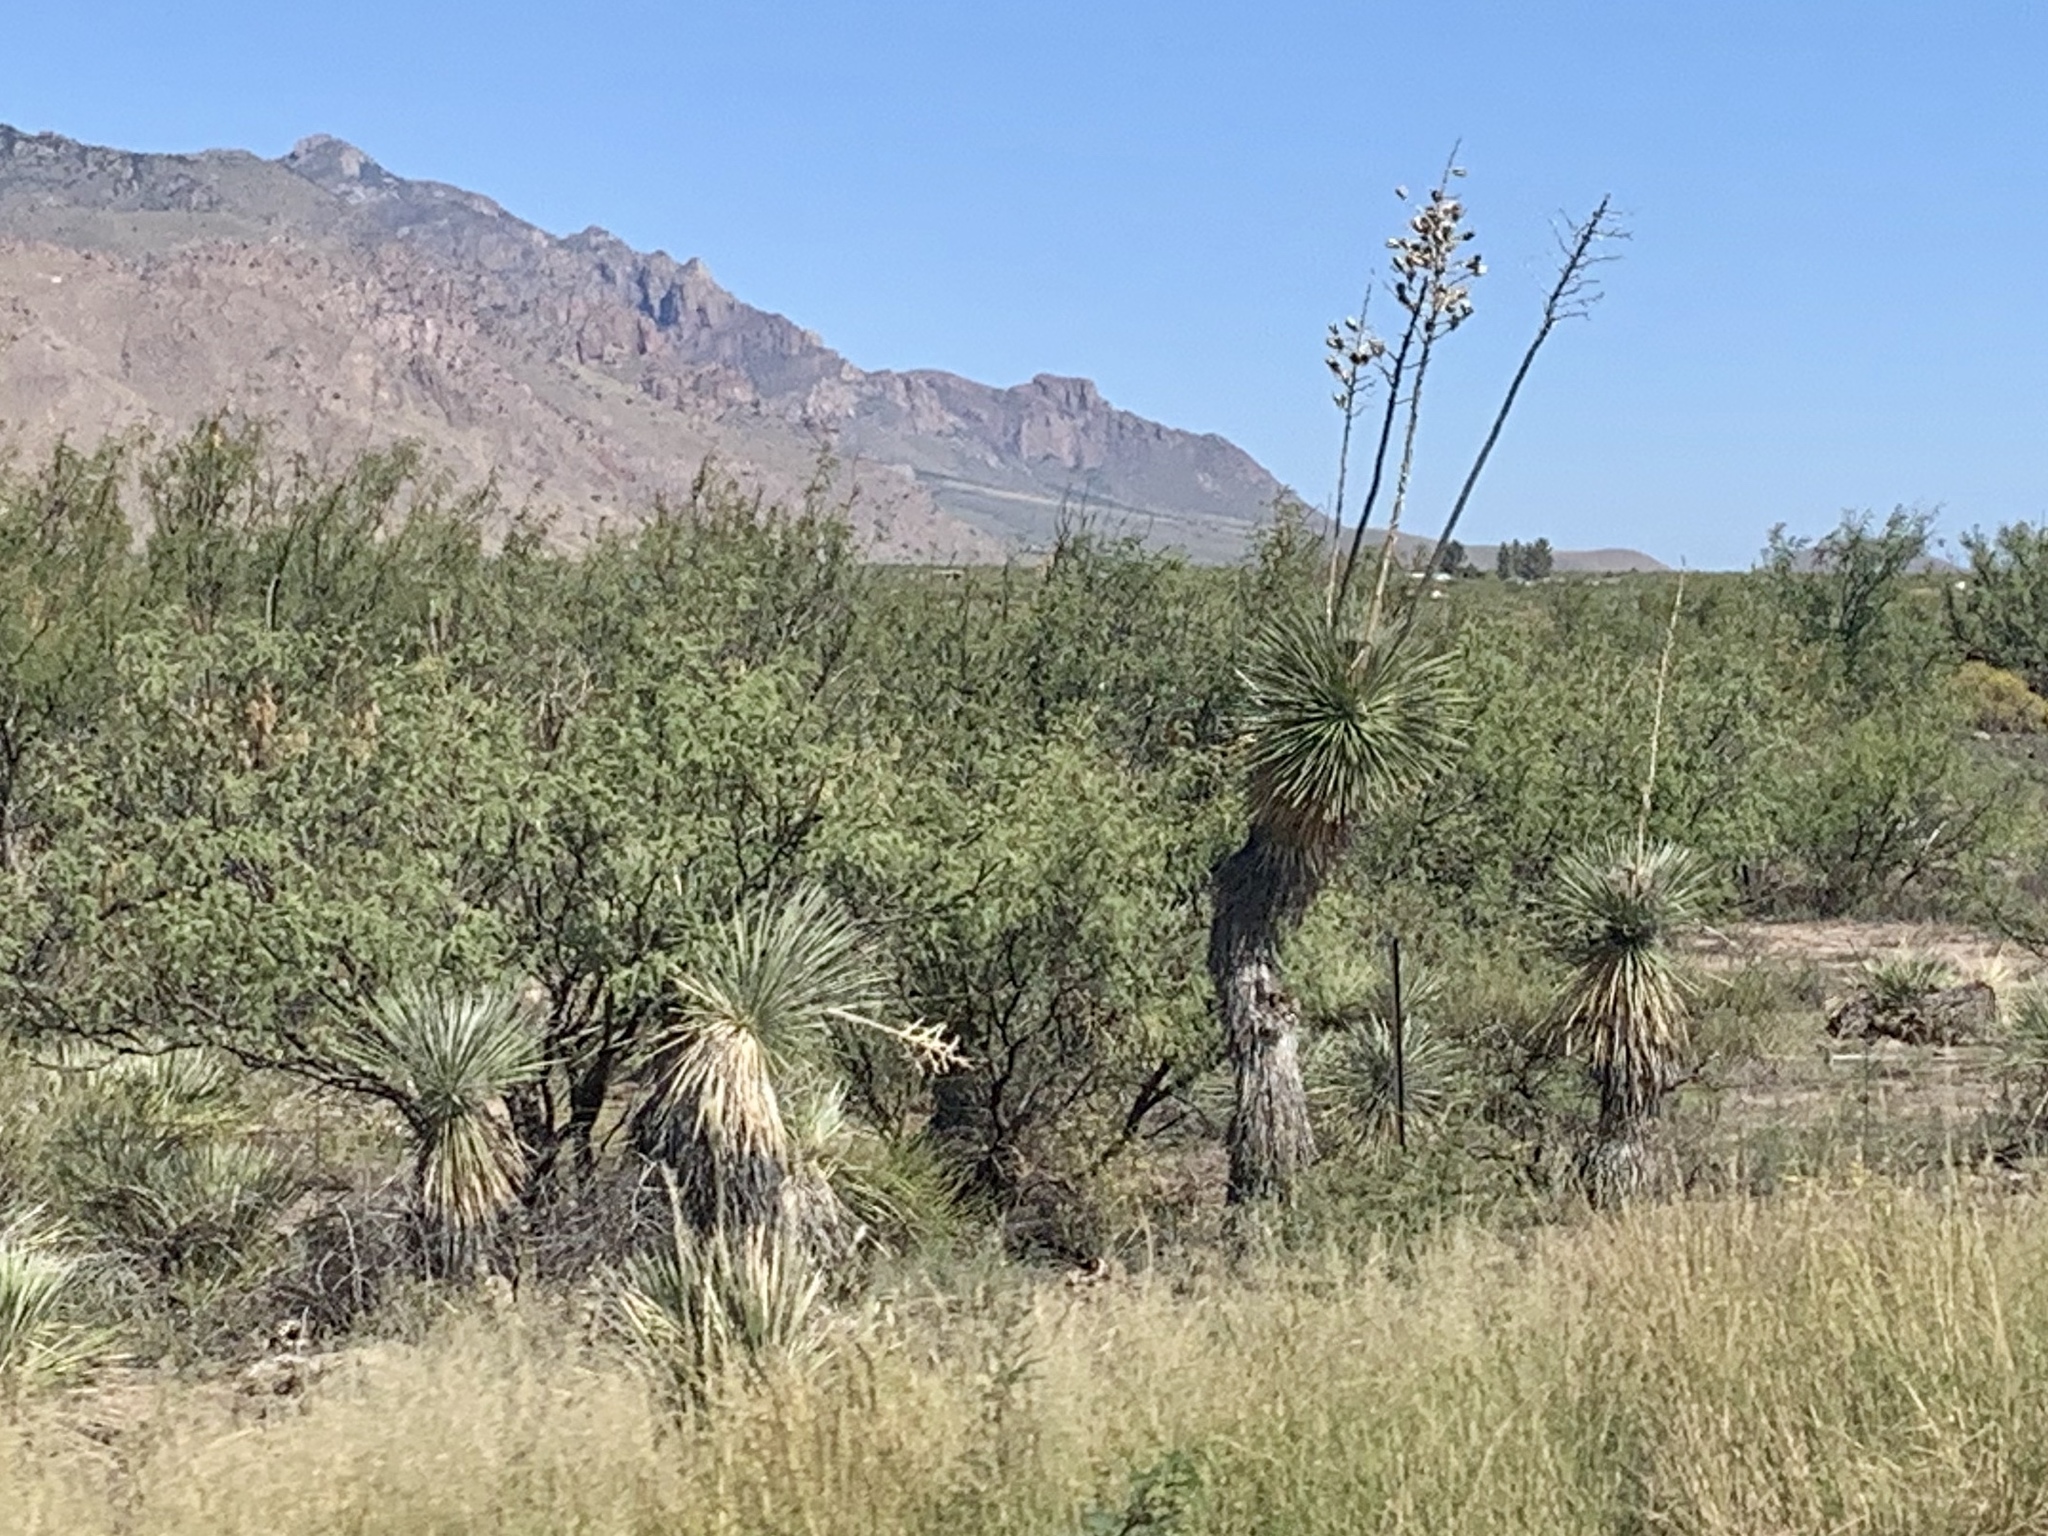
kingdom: Plantae
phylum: Tracheophyta
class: Liliopsida
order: Asparagales
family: Asparagaceae
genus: Yucca
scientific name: Yucca elata
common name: Palmella
